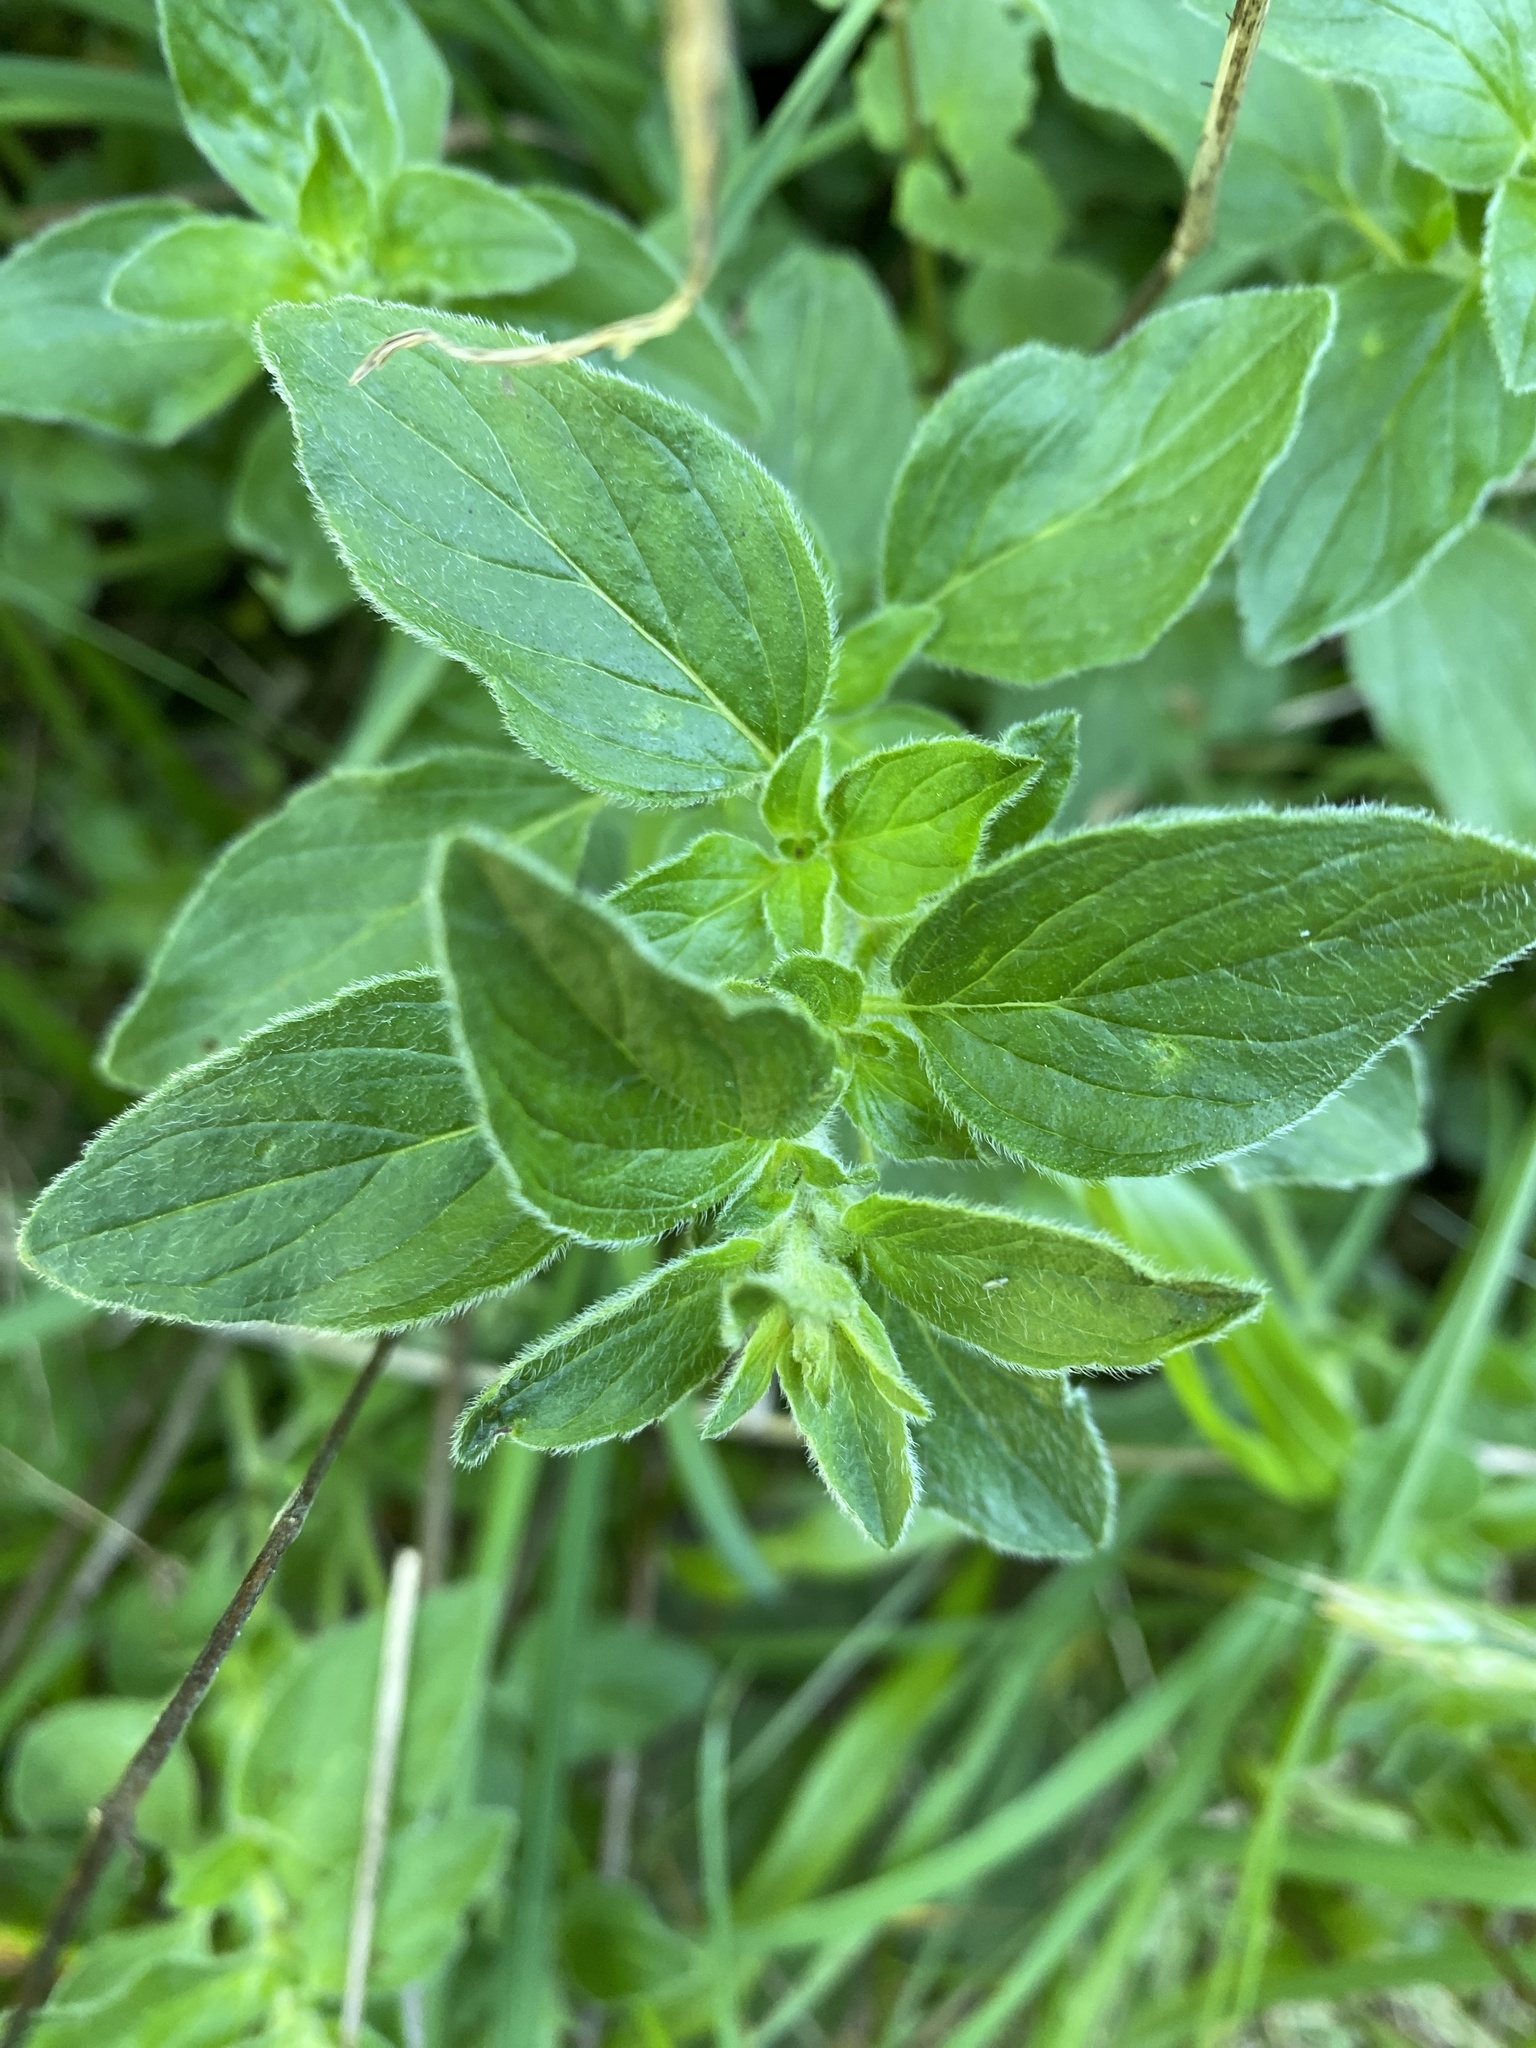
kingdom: Plantae
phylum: Tracheophyta
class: Magnoliopsida
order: Lamiales
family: Lamiaceae
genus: Origanum
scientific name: Origanum vulgare
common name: Wild marjoram
